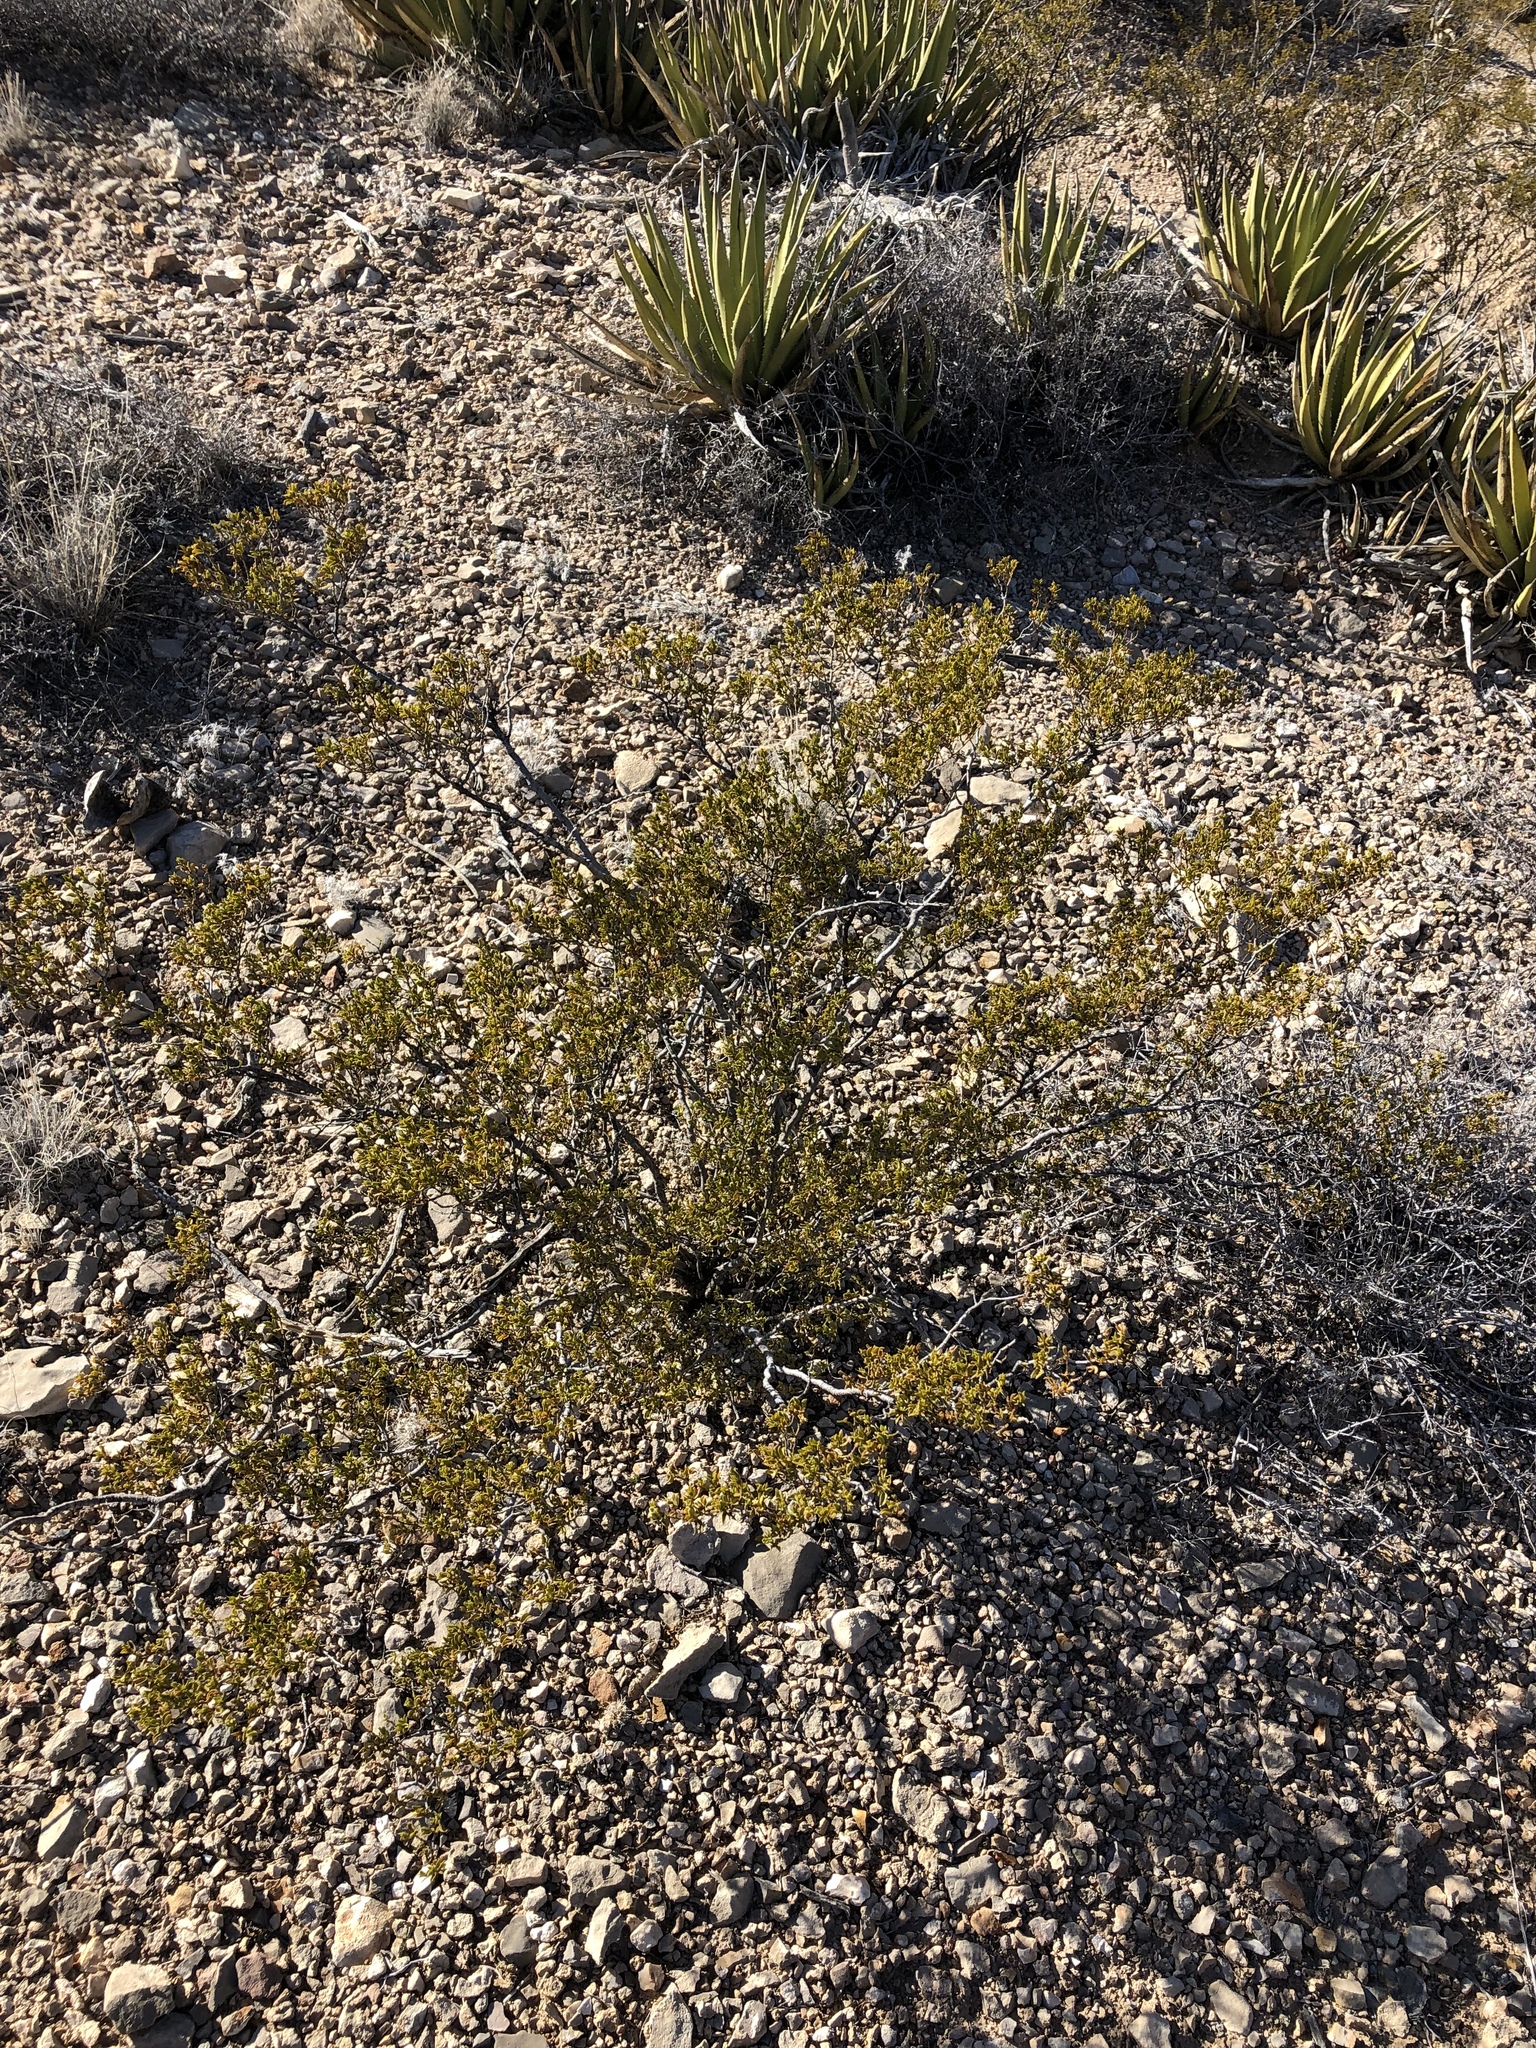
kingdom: Plantae
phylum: Tracheophyta
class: Magnoliopsida
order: Zygophyllales
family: Zygophyllaceae
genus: Larrea
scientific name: Larrea tridentata
